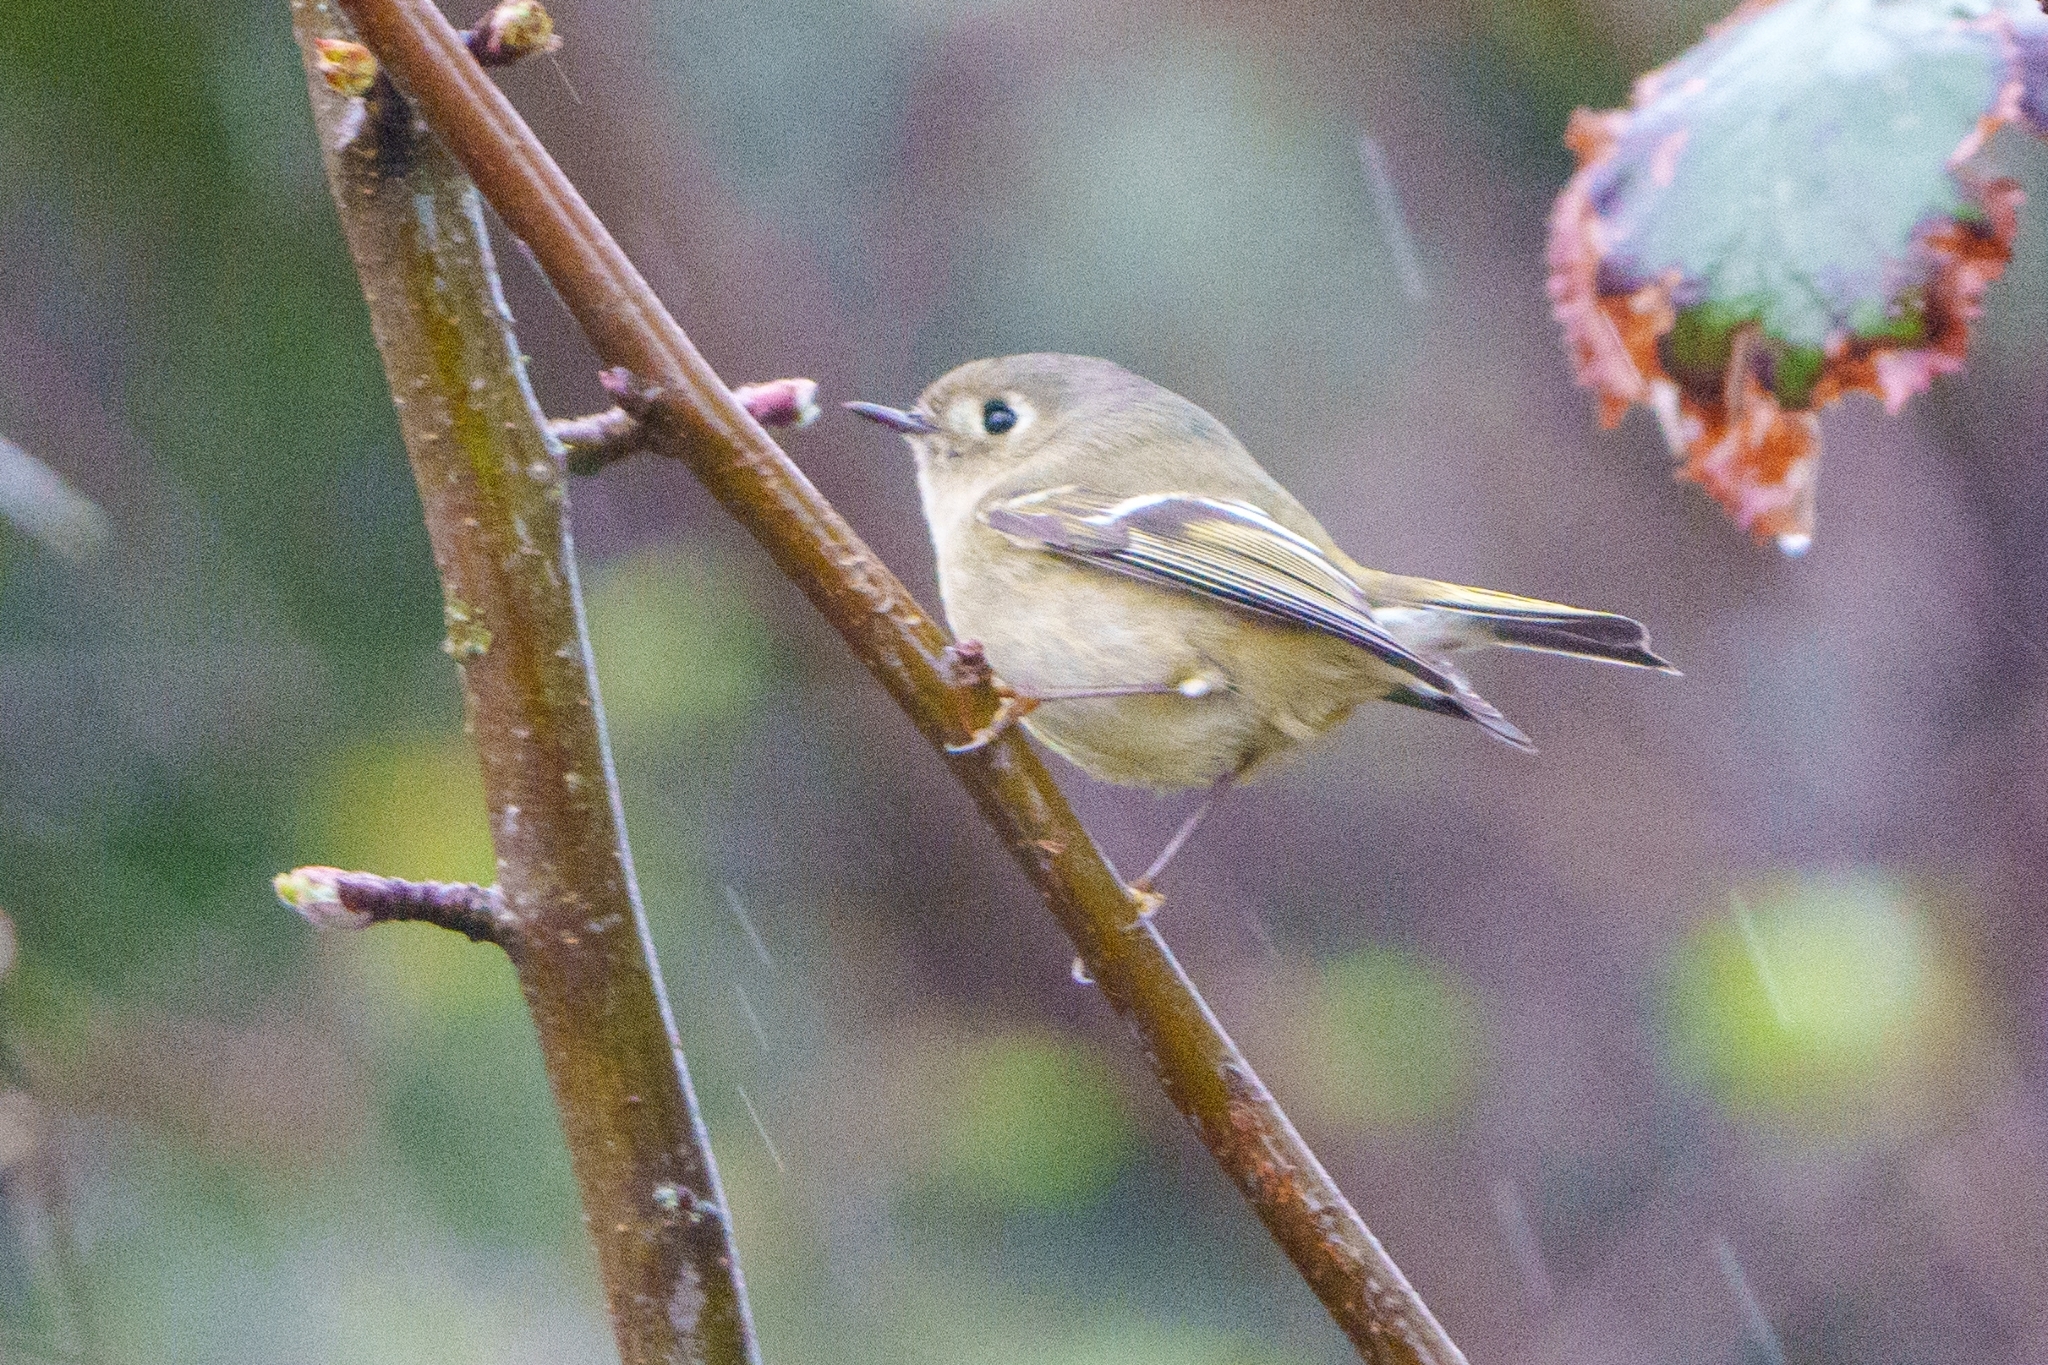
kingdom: Animalia
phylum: Chordata
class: Aves
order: Passeriformes
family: Regulidae
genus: Regulus
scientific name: Regulus calendula
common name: Ruby-crowned kinglet
